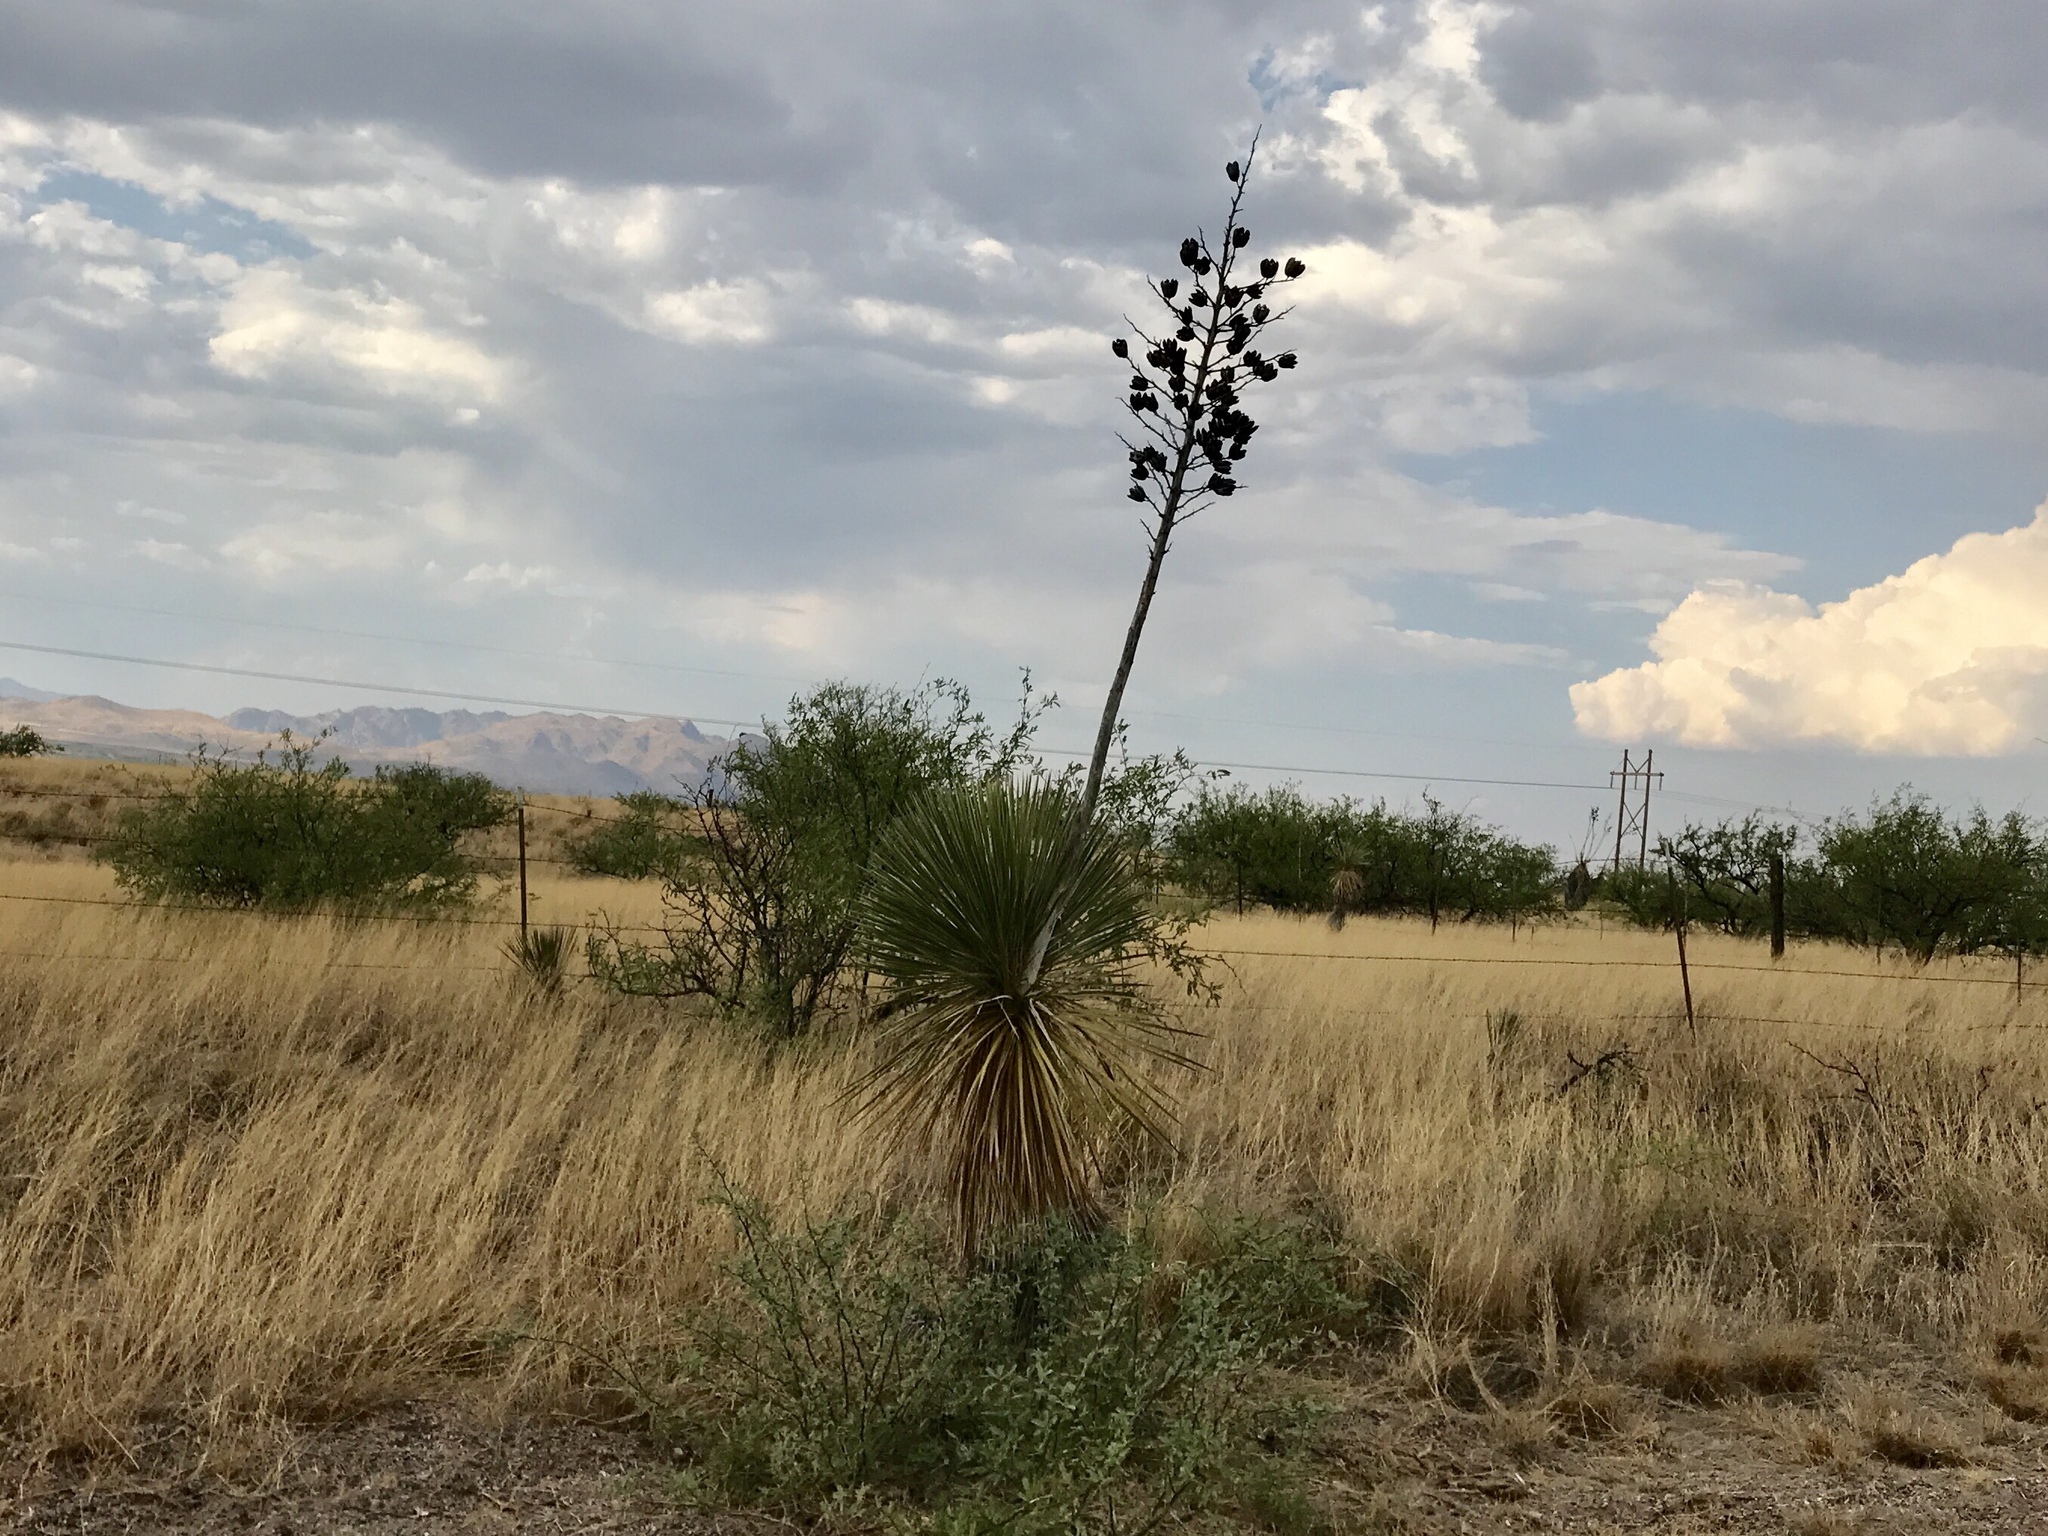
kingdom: Plantae
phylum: Tracheophyta
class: Liliopsida
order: Asparagales
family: Asparagaceae
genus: Yucca
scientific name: Yucca elata
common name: Palmella
